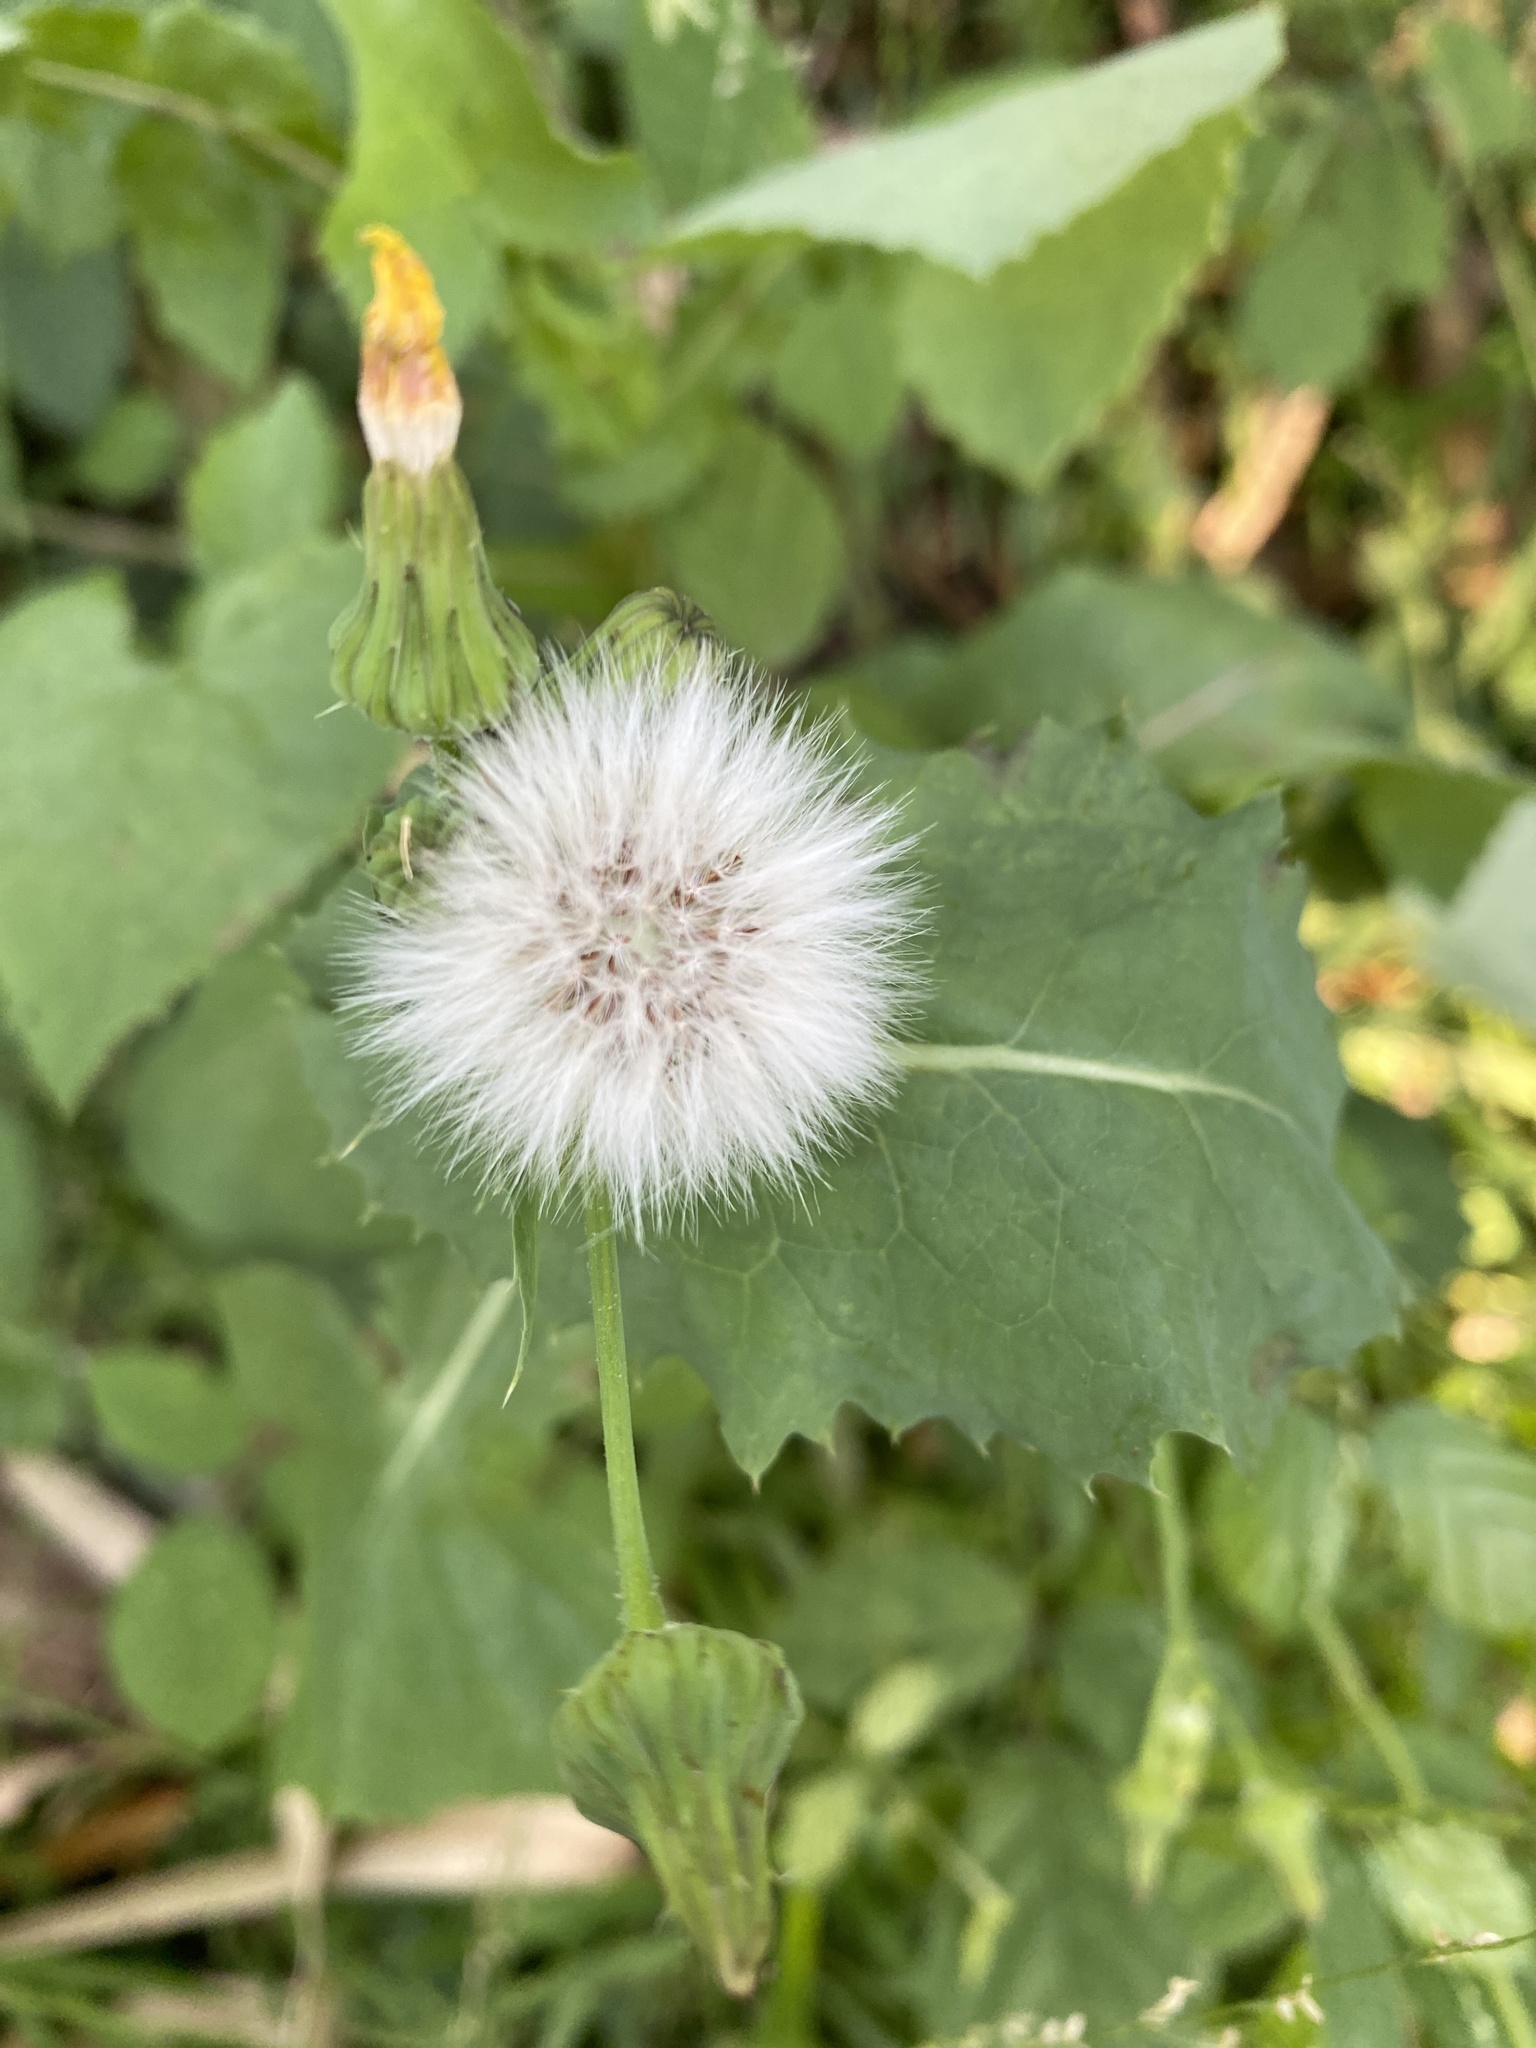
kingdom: Plantae
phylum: Tracheophyta
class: Magnoliopsida
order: Asterales
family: Asteraceae
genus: Sonchus
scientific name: Sonchus oleraceus
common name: Common sowthistle
